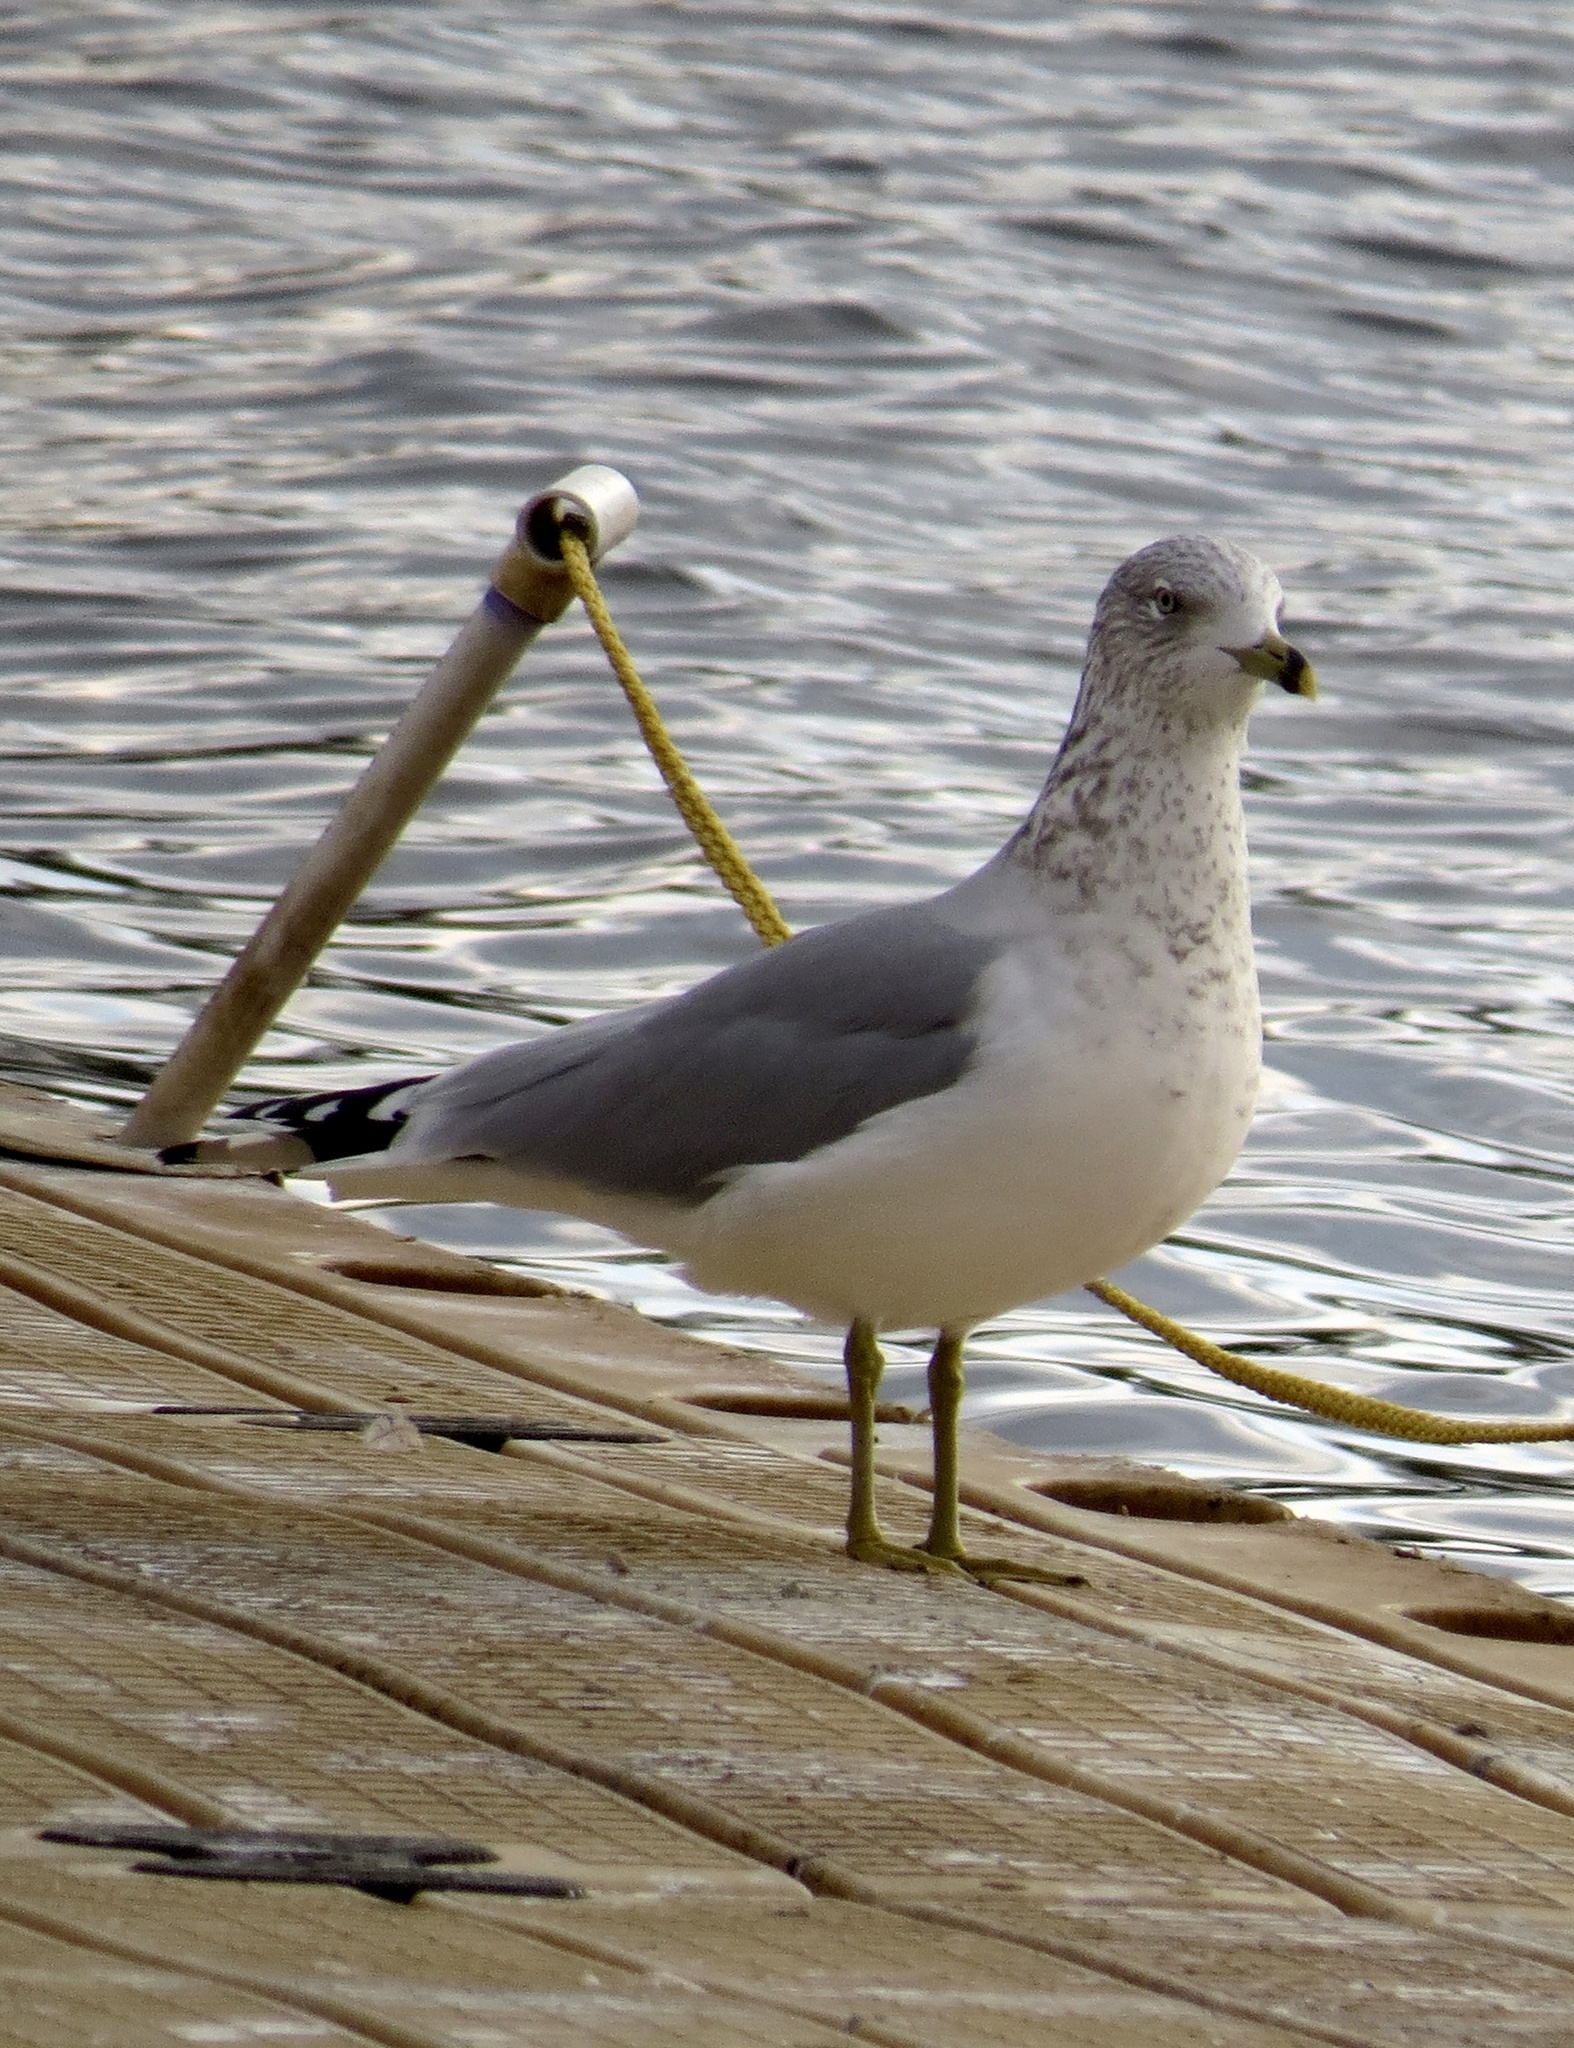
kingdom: Animalia
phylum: Chordata
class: Aves
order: Charadriiformes
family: Laridae
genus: Larus
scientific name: Larus delawarensis
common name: Ring-billed gull
